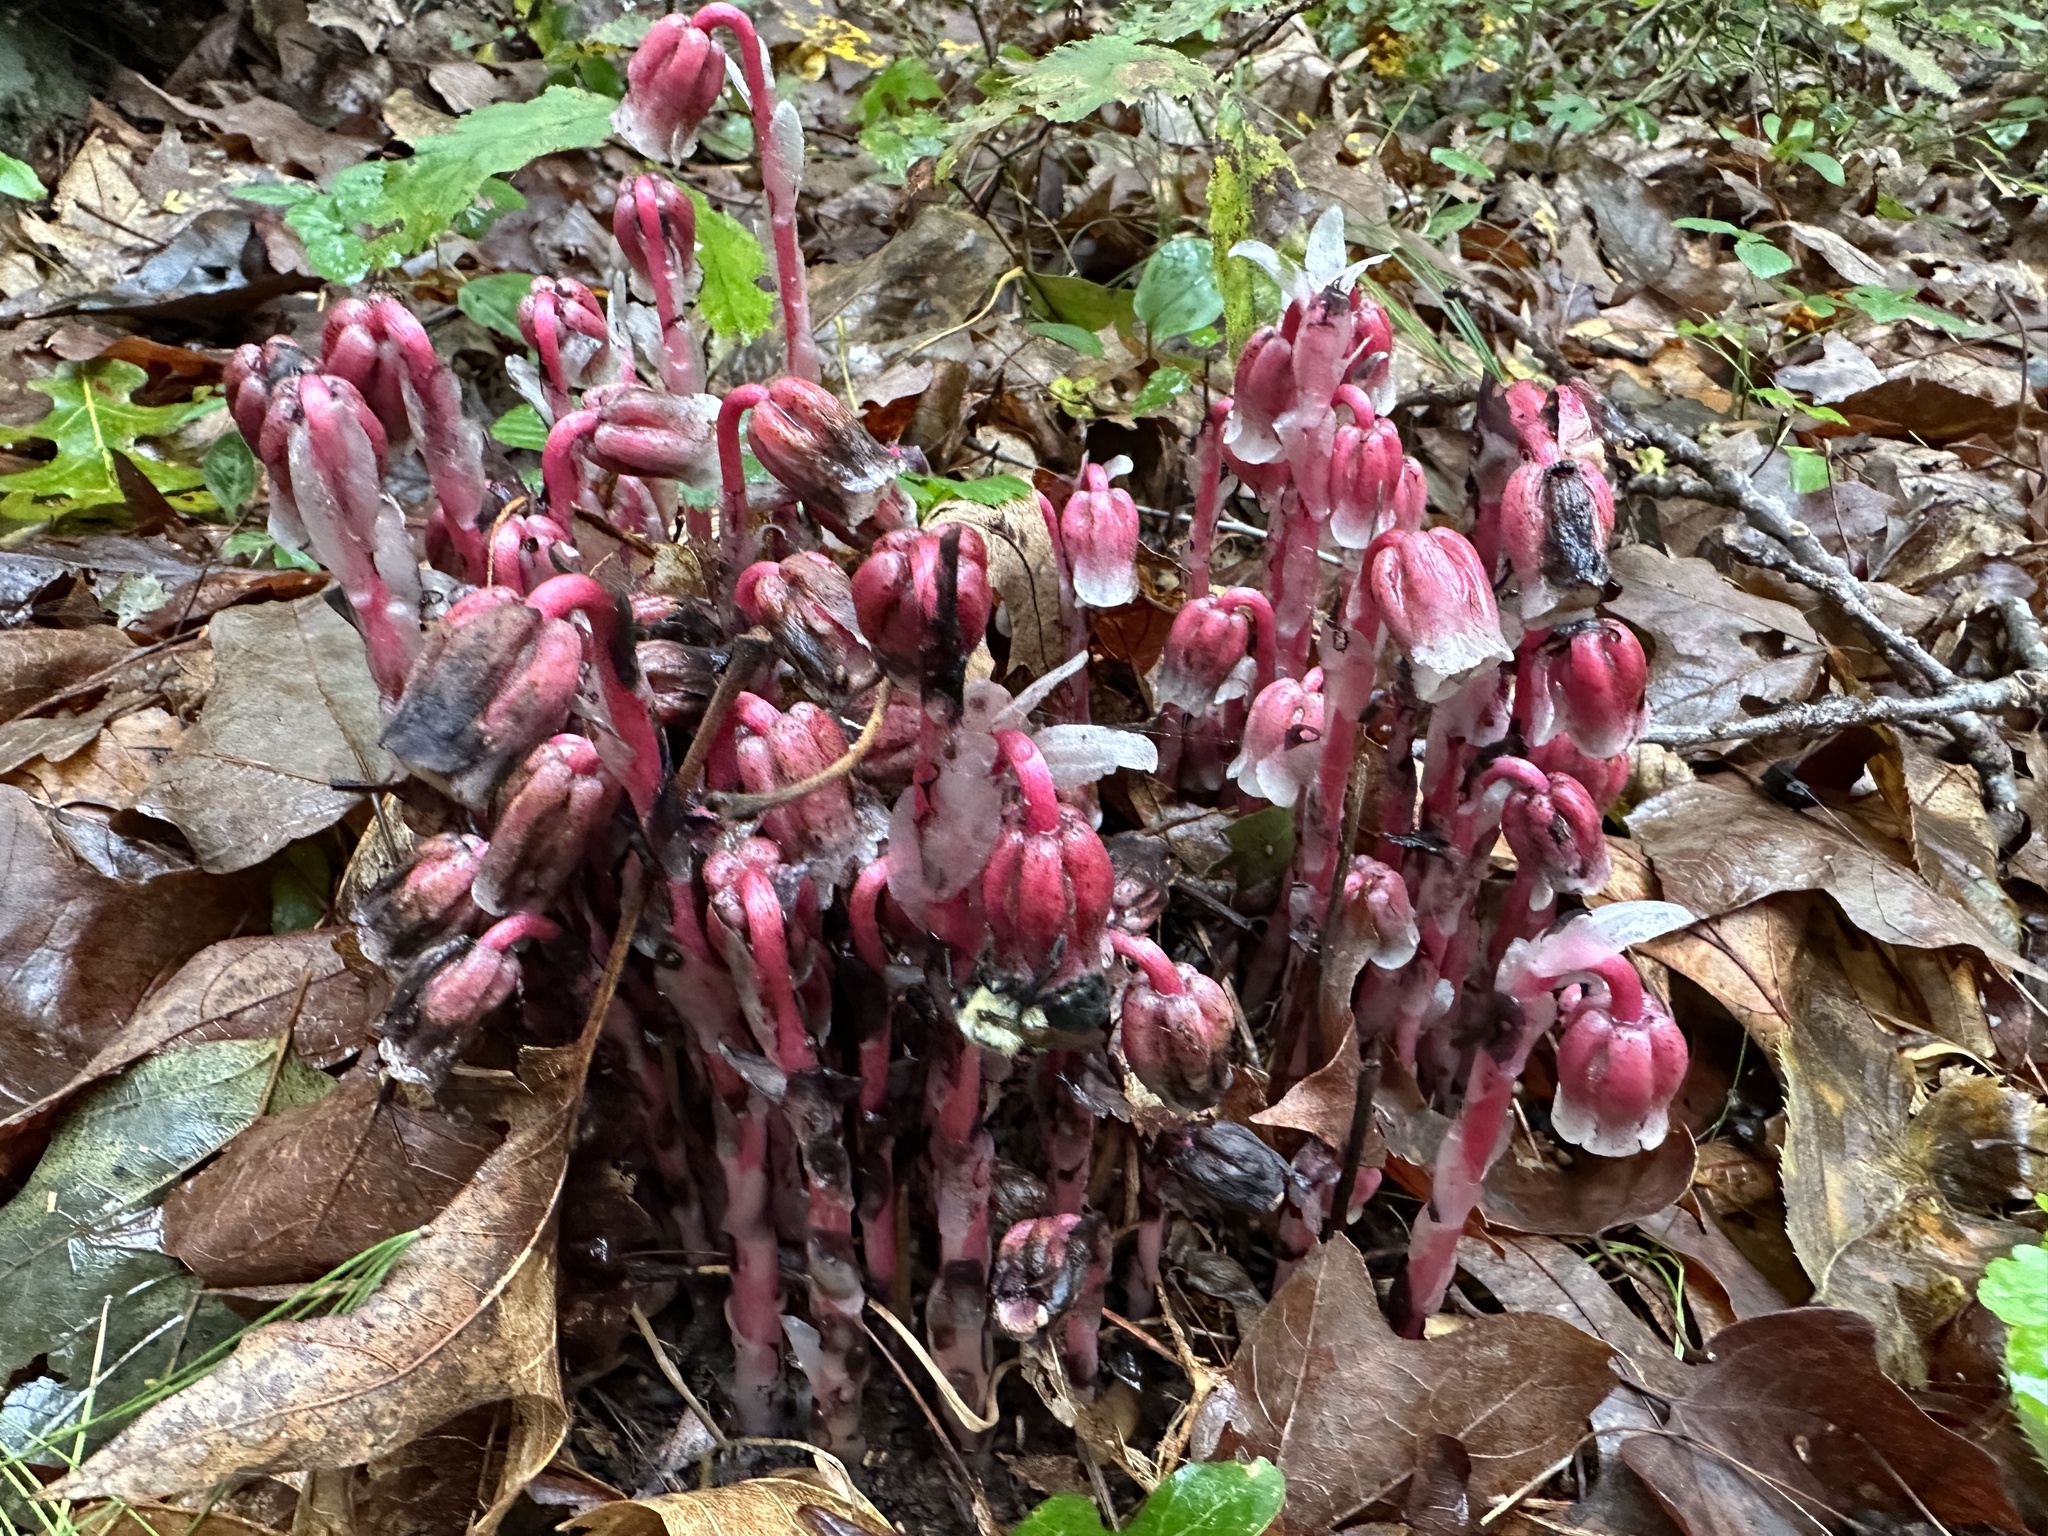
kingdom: Plantae
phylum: Tracheophyta
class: Magnoliopsida
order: Ericales
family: Ericaceae
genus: Monotropa
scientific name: Monotropa uniflora
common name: Convulsion root
